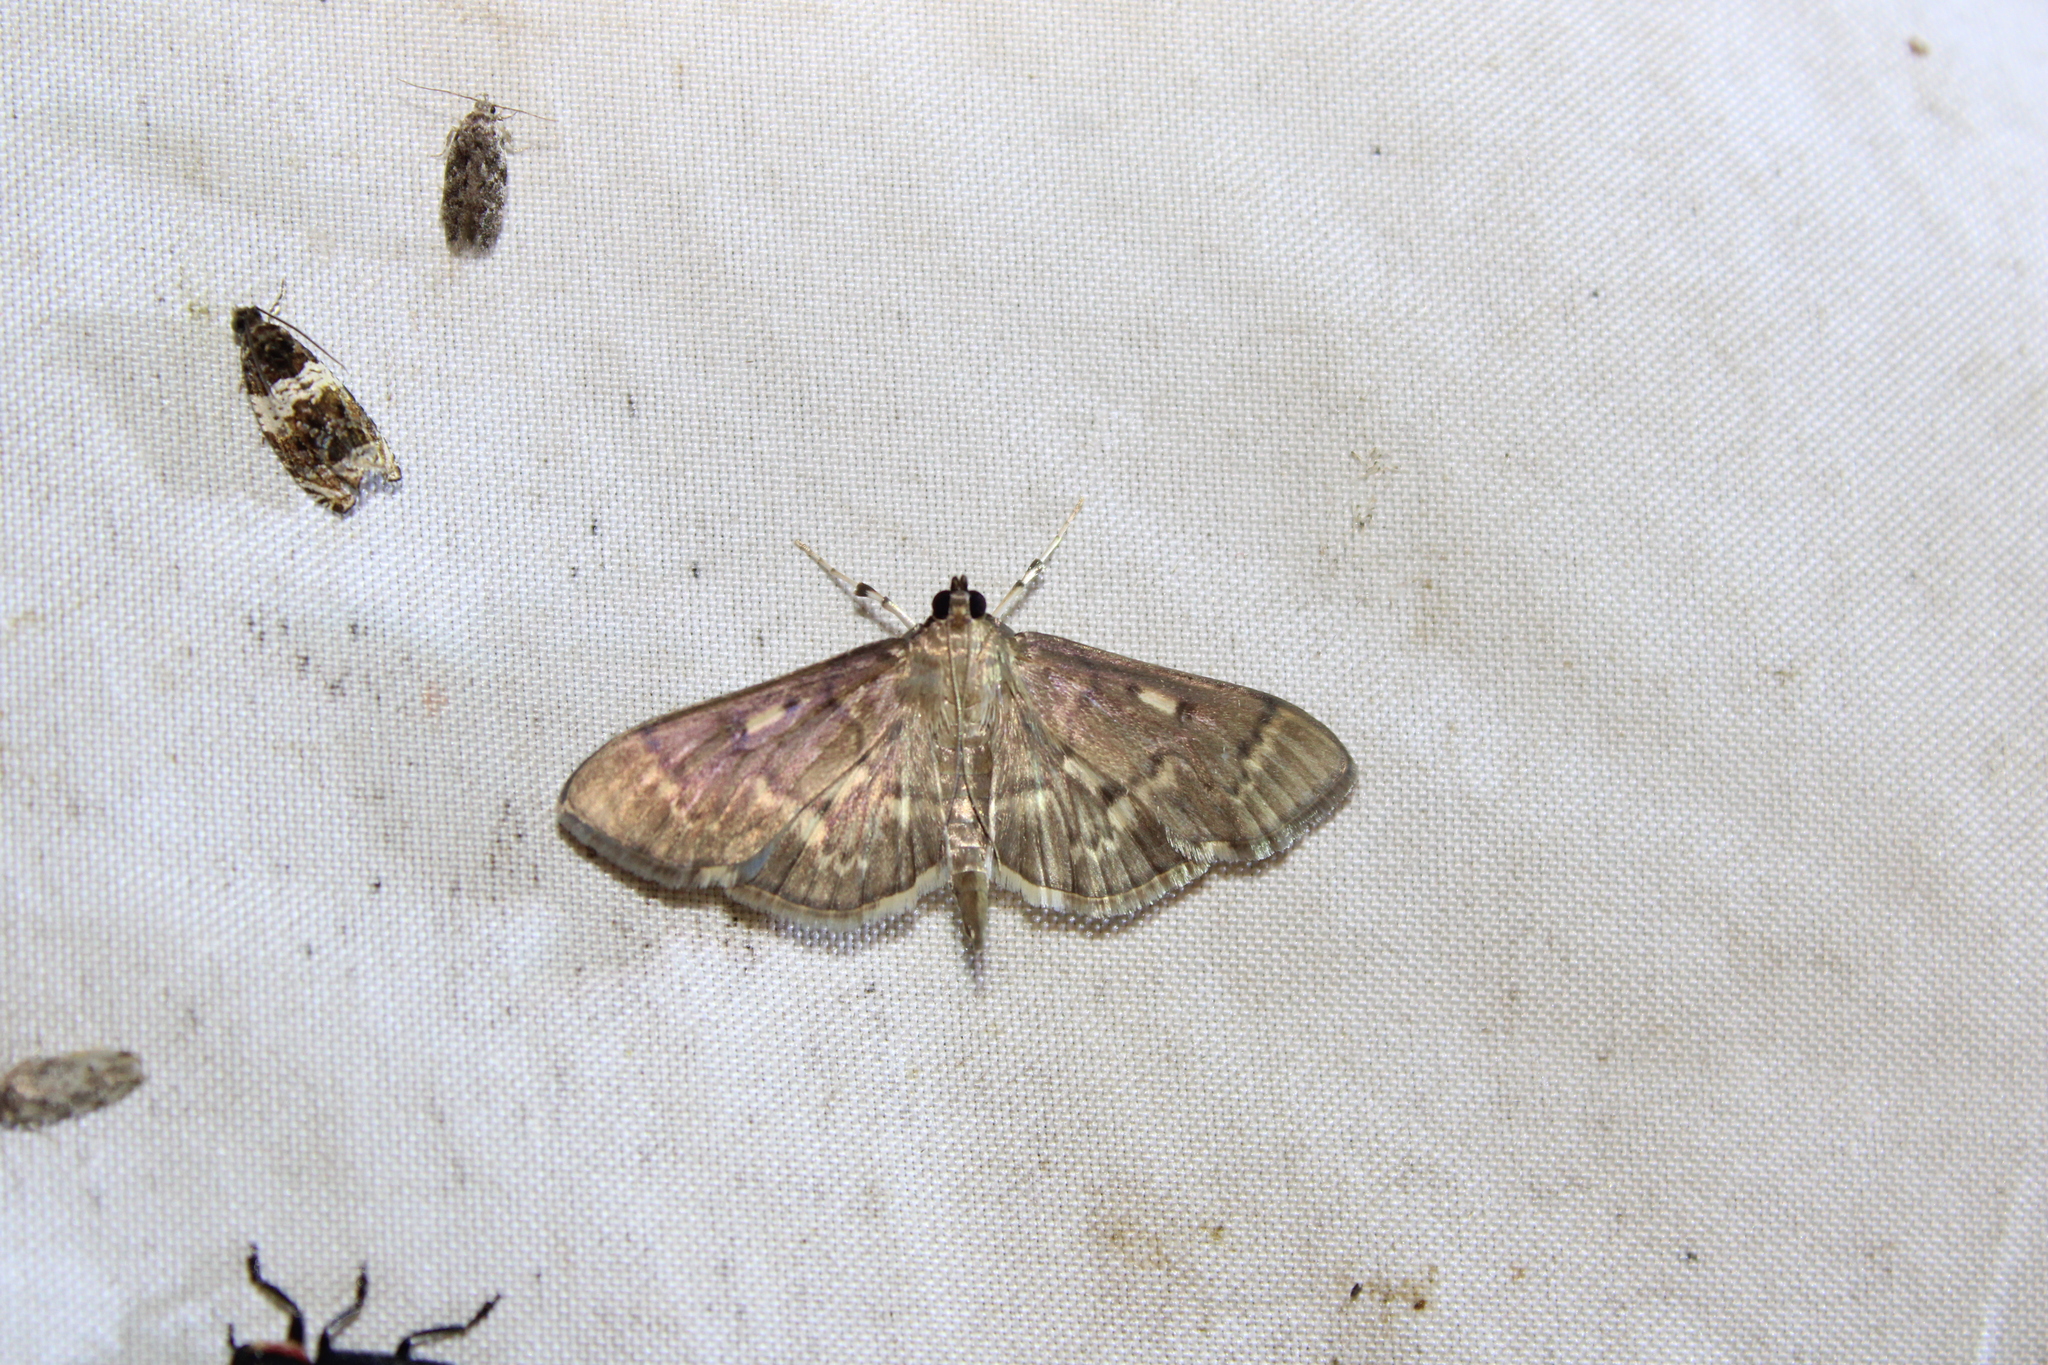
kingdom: Animalia
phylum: Arthropoda
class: Insecta
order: Lepidoptera
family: Crambidae
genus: Herpetogramma
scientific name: Herpetogramma aeglealis
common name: Serpentine webworm moth
